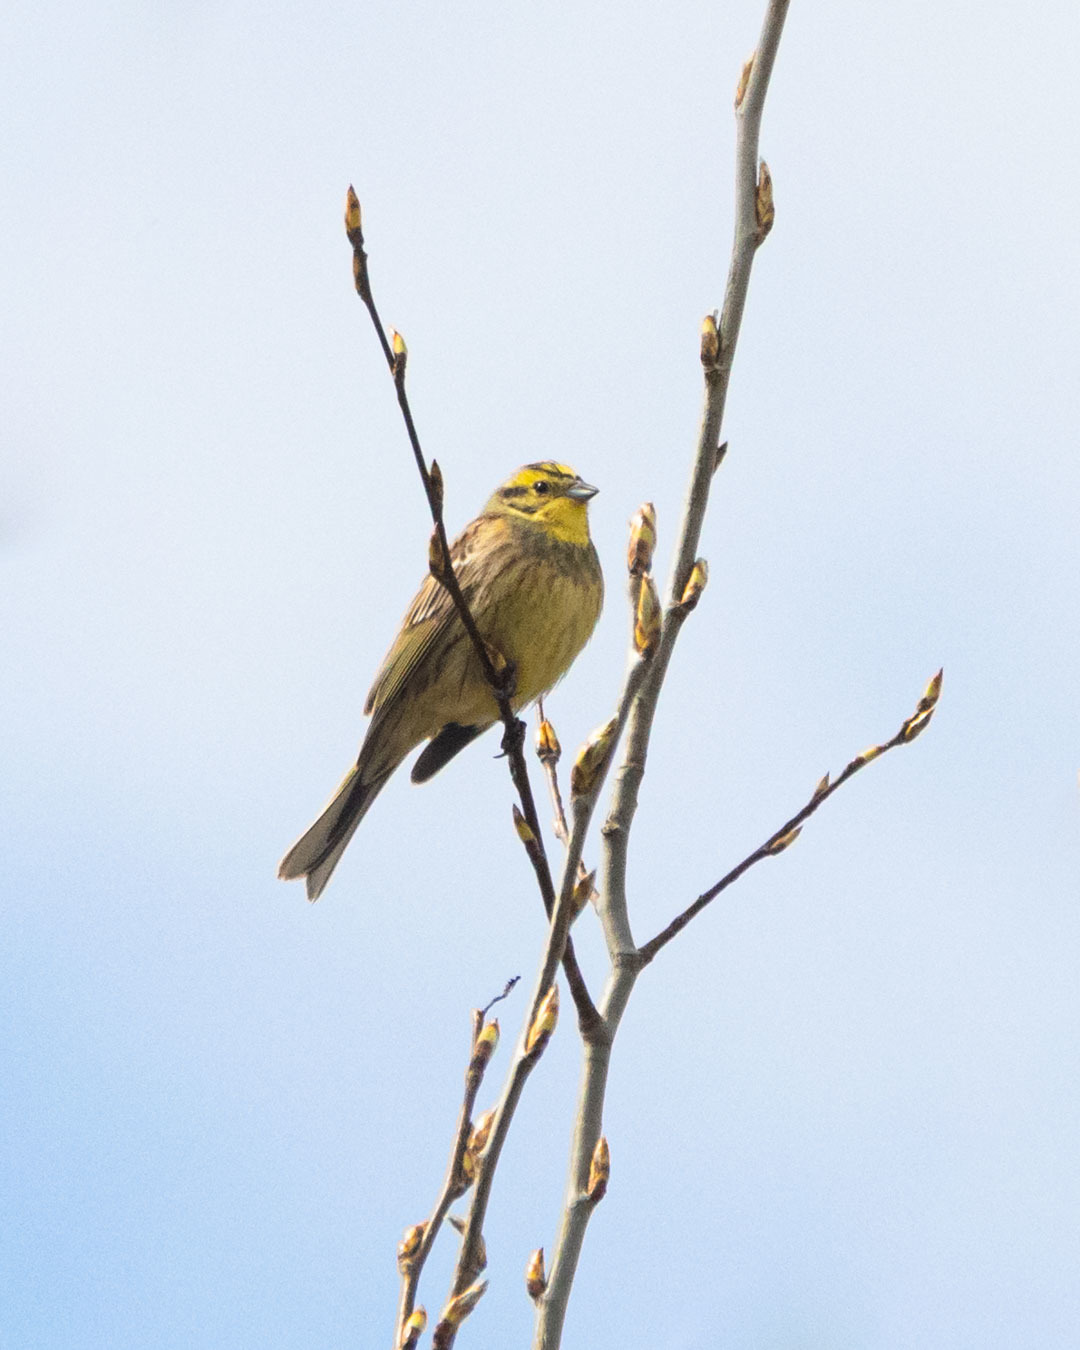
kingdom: Animalia
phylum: Chordata
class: Aves
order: Passeriformes
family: Emberizidae
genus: Emberiza
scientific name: Emberiza citrinella
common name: Yellowhammer
